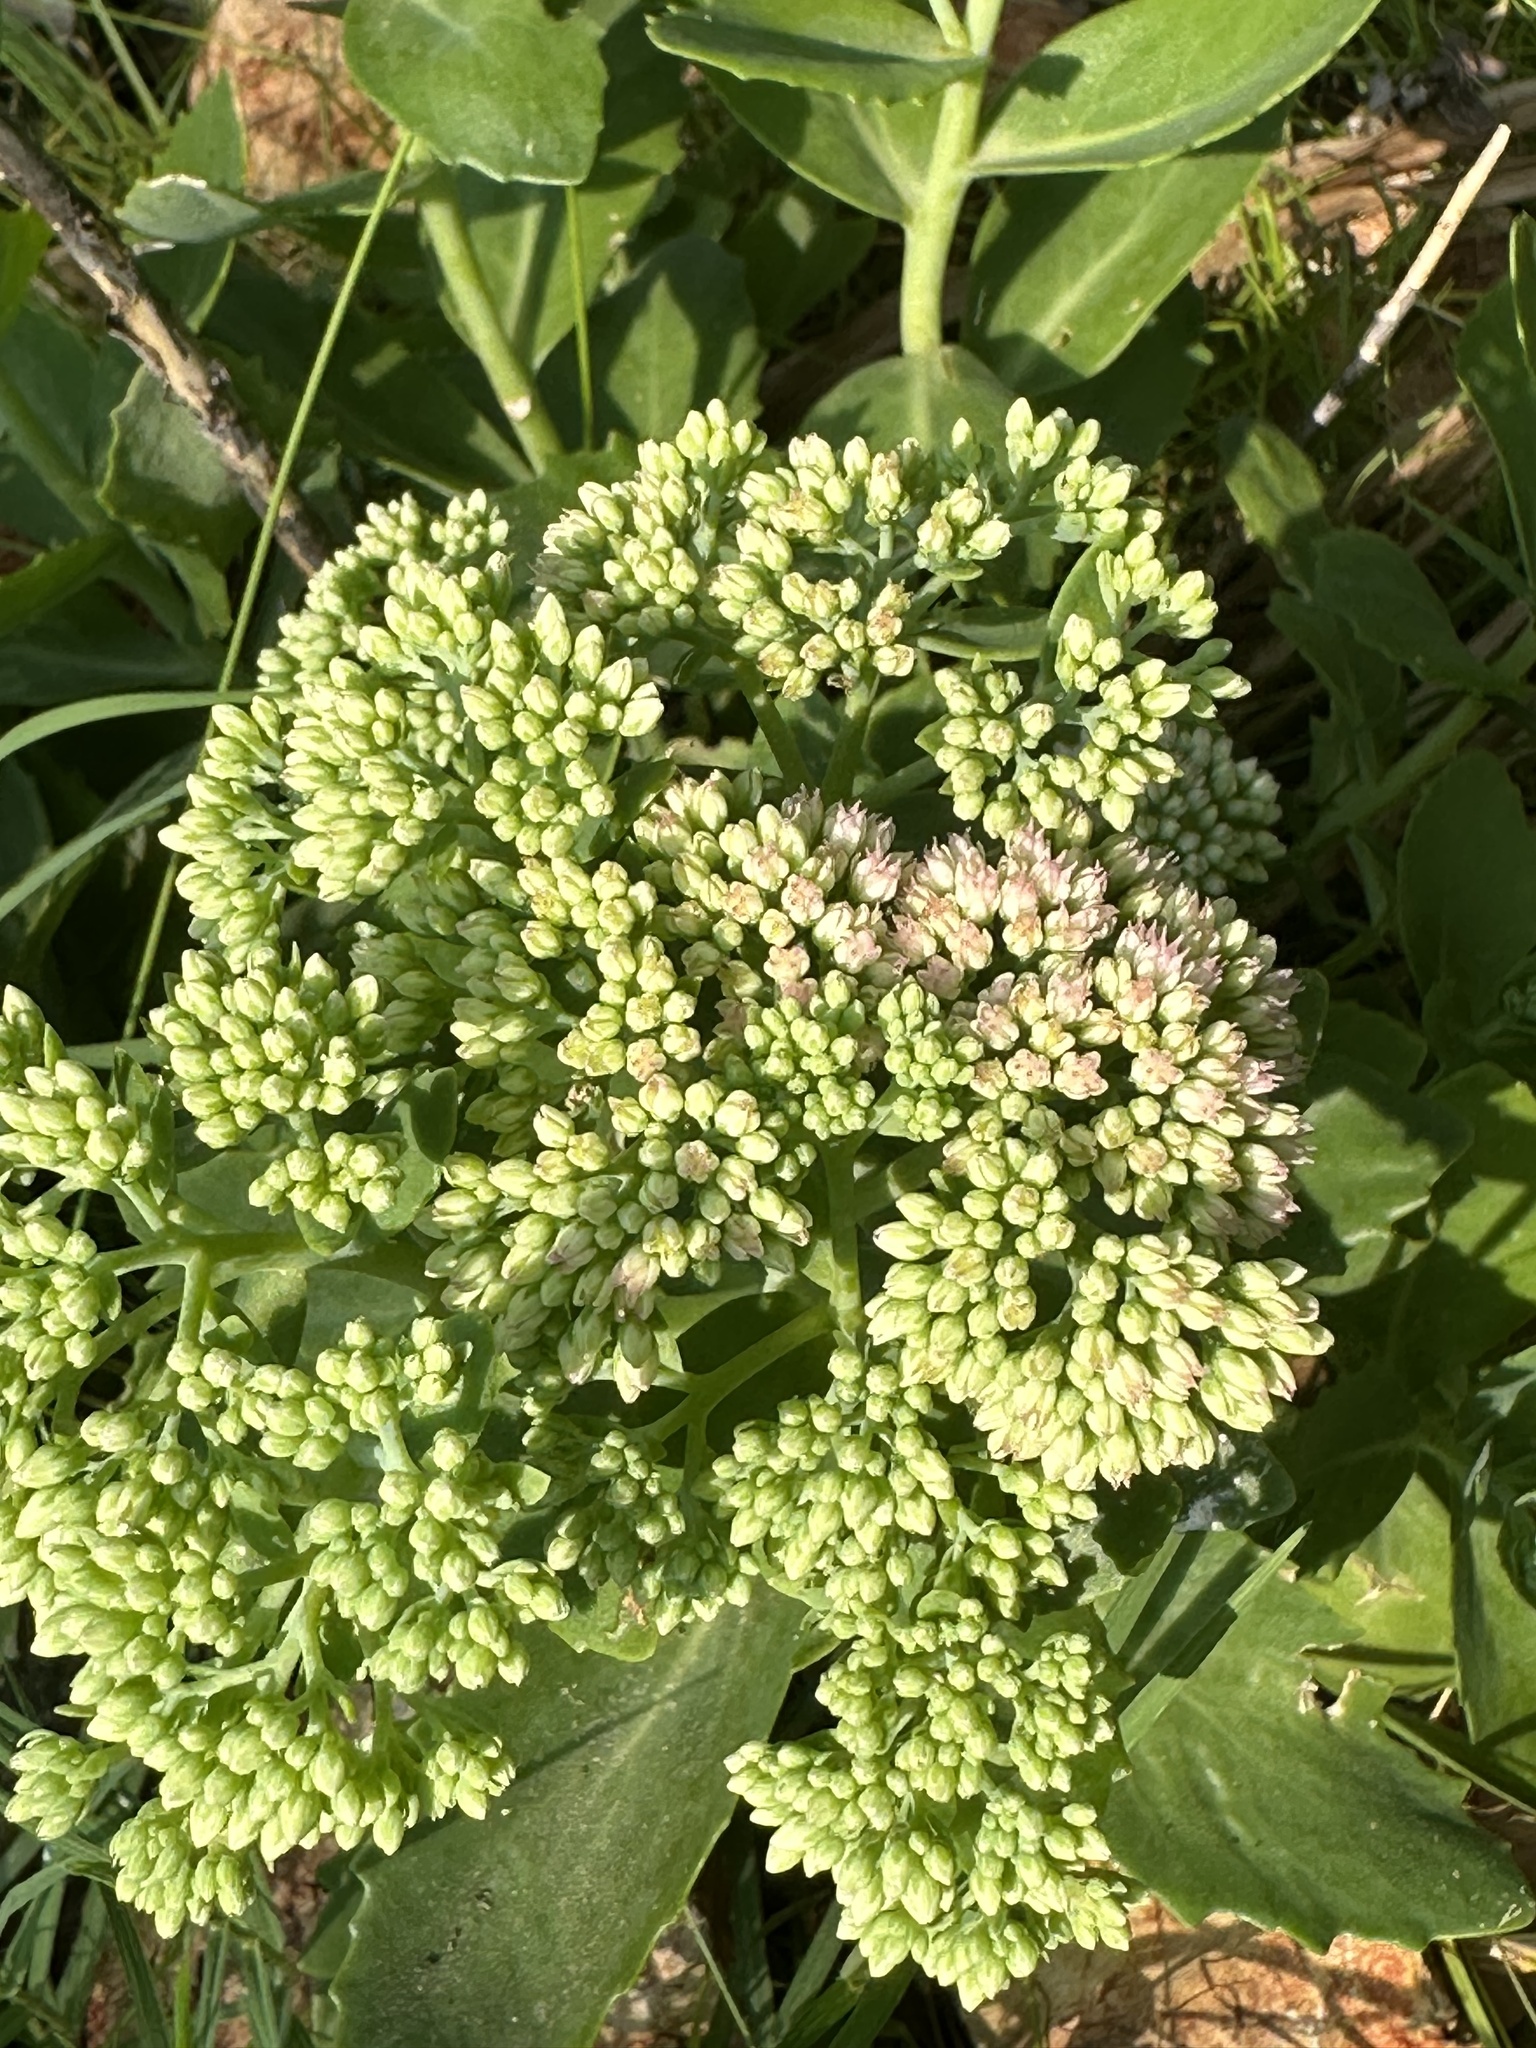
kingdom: Plantae
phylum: Tracheophyta
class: Magnoliopsida
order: Saxifragales
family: Crassulaceae
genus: Hylotelephium
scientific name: Hylotelephium
